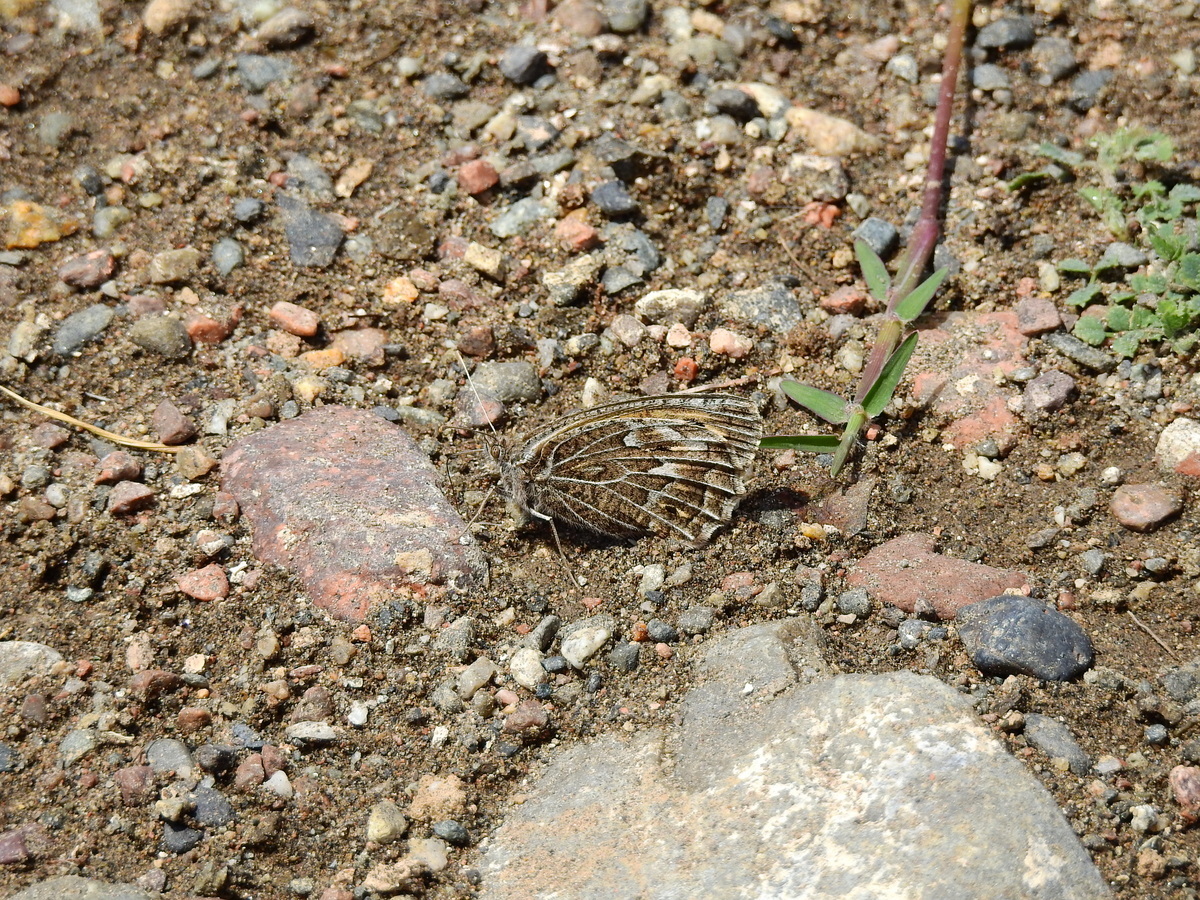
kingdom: Animalia
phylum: Arthropoda
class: Insecta
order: Lepidoptera
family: Nymphalidae
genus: Argyrophorus
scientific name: Argyrophorus
